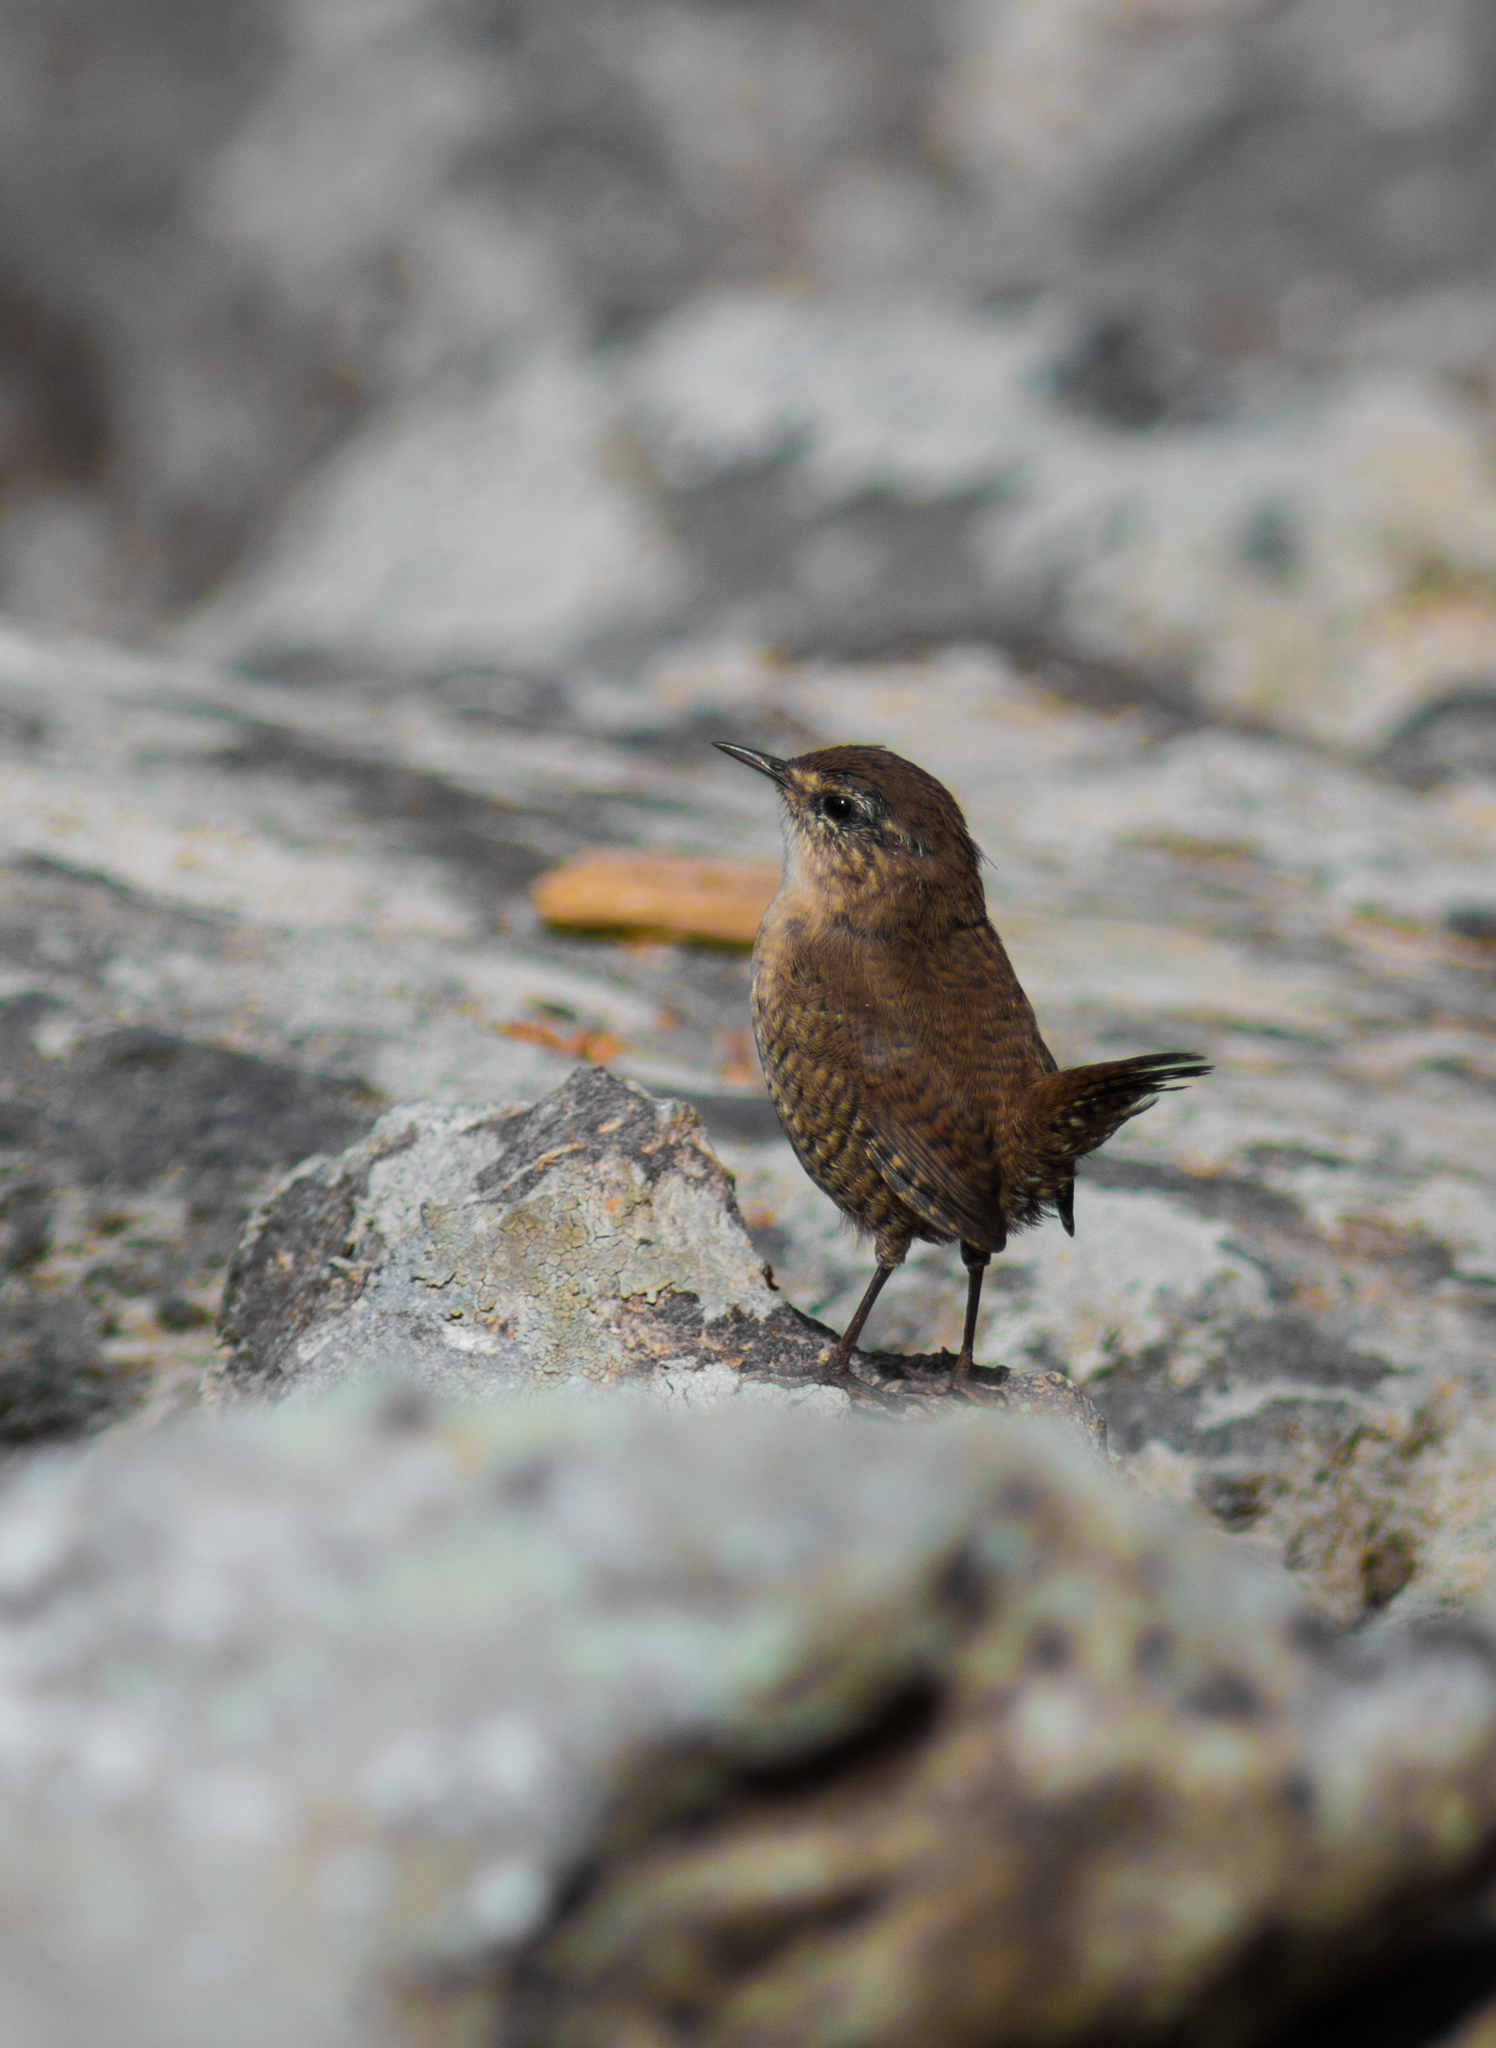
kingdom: Animalia
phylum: Chordata
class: Aves
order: Passeriformes
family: Troglodytidae
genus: Troglodytes
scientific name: Troglodytes troglodytes
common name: Eurasian wren
